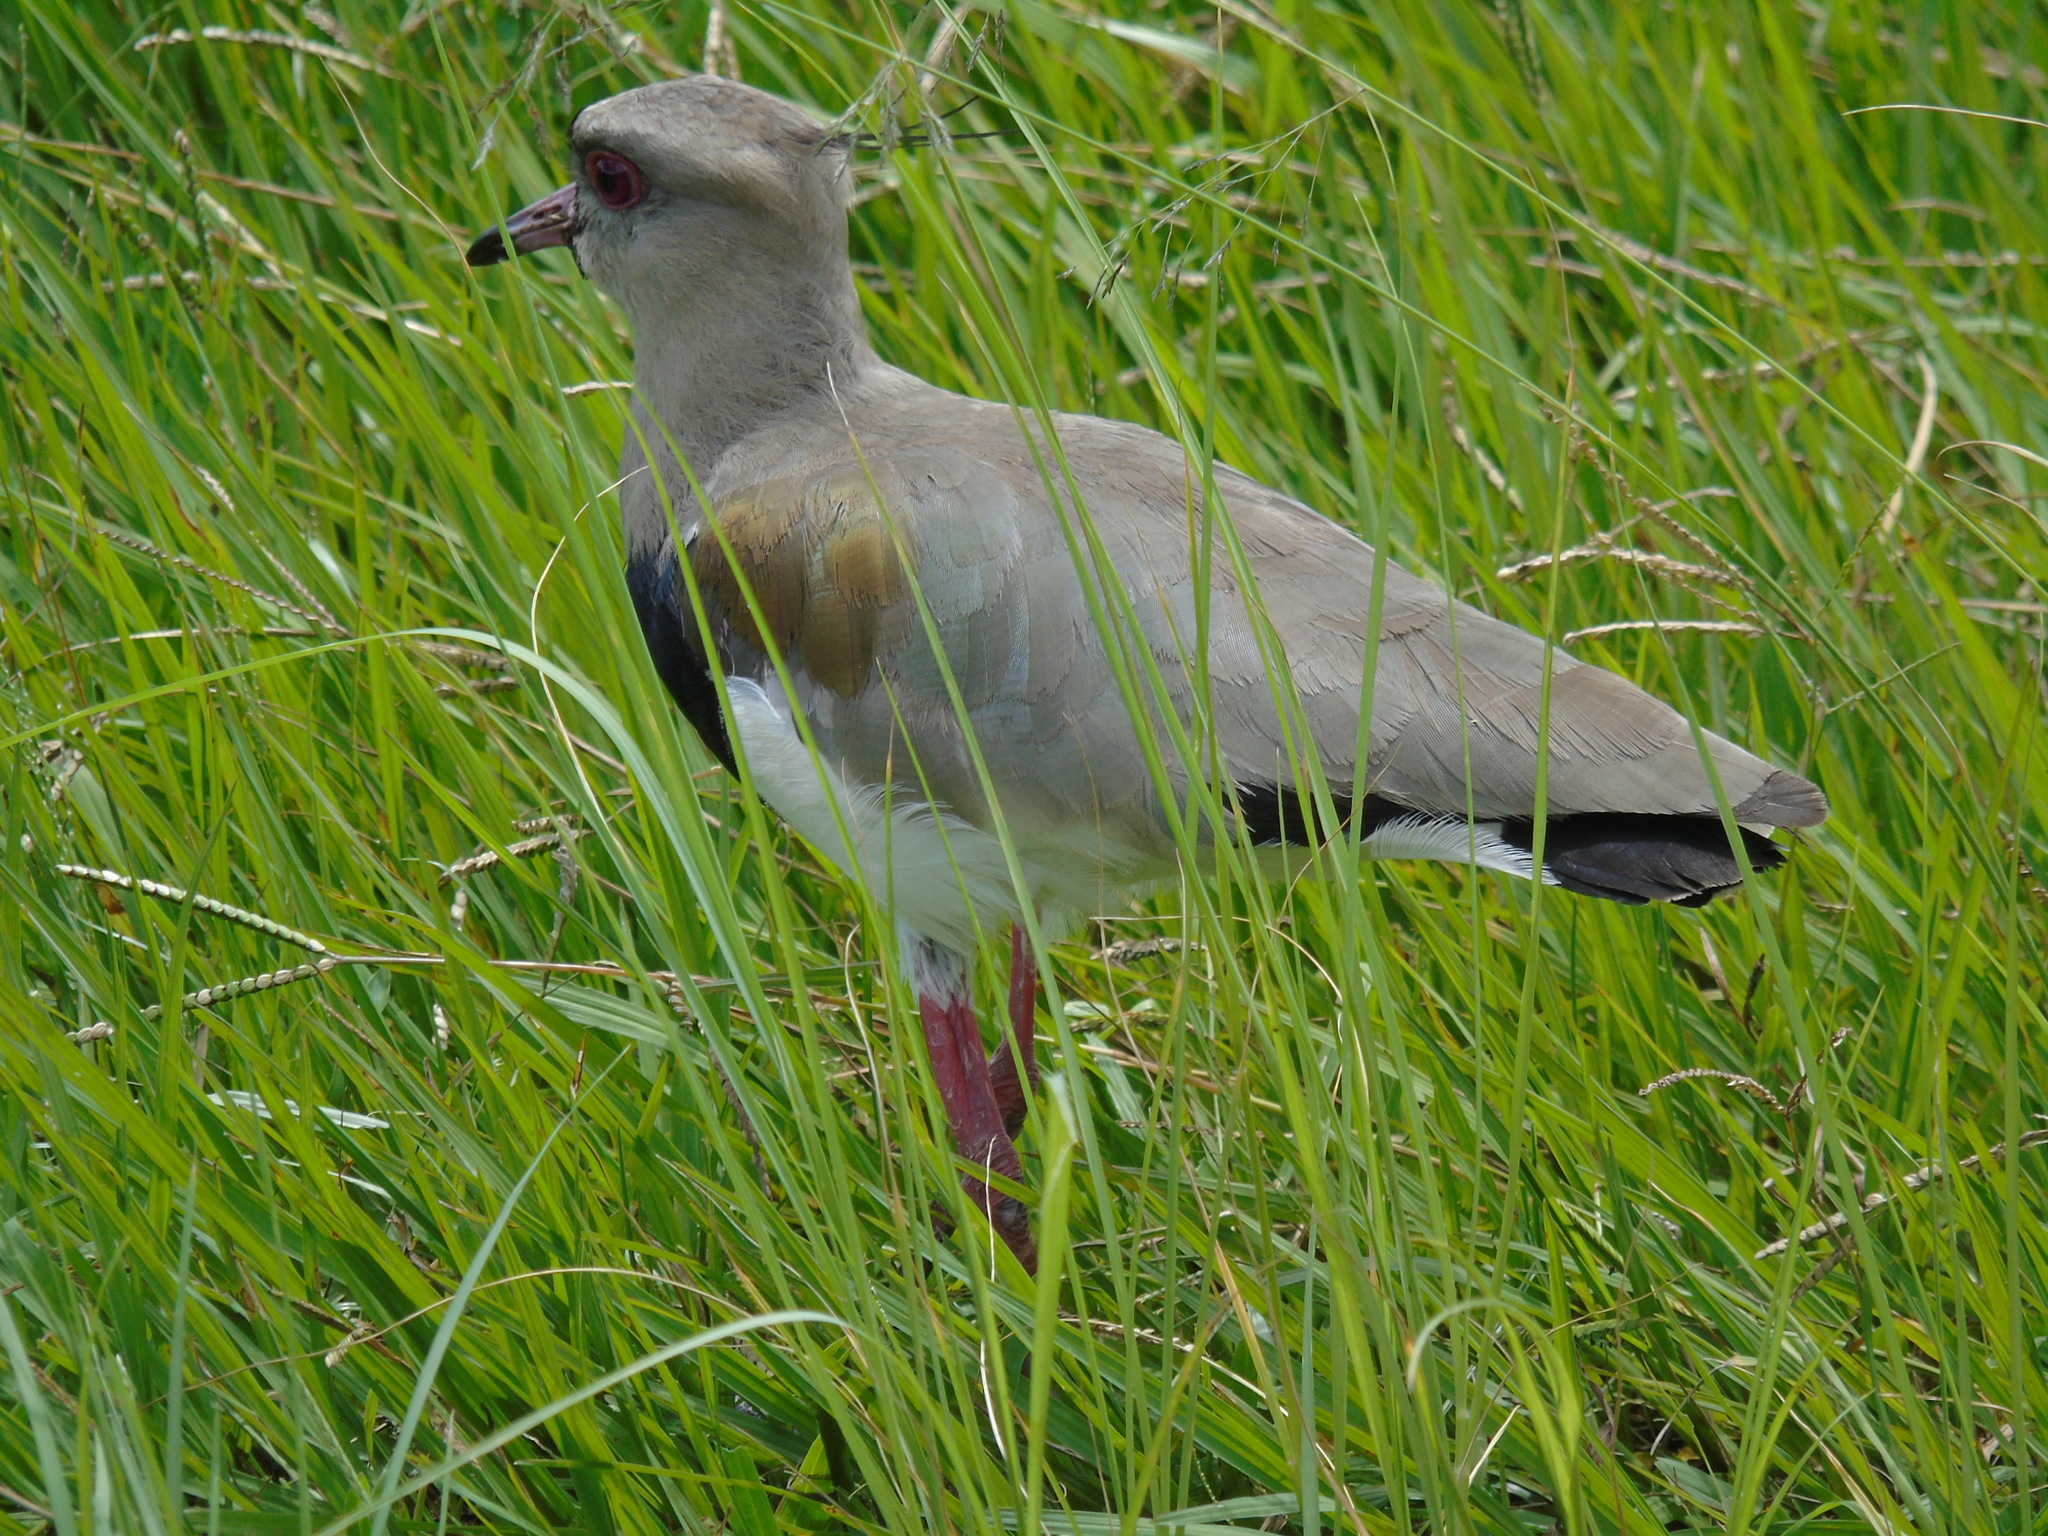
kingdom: Animalia
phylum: Chordata
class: Aves
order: Charadriiformes
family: Charadriidae
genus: Vanellus
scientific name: Vanellus chilensis
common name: Southern lapwing
